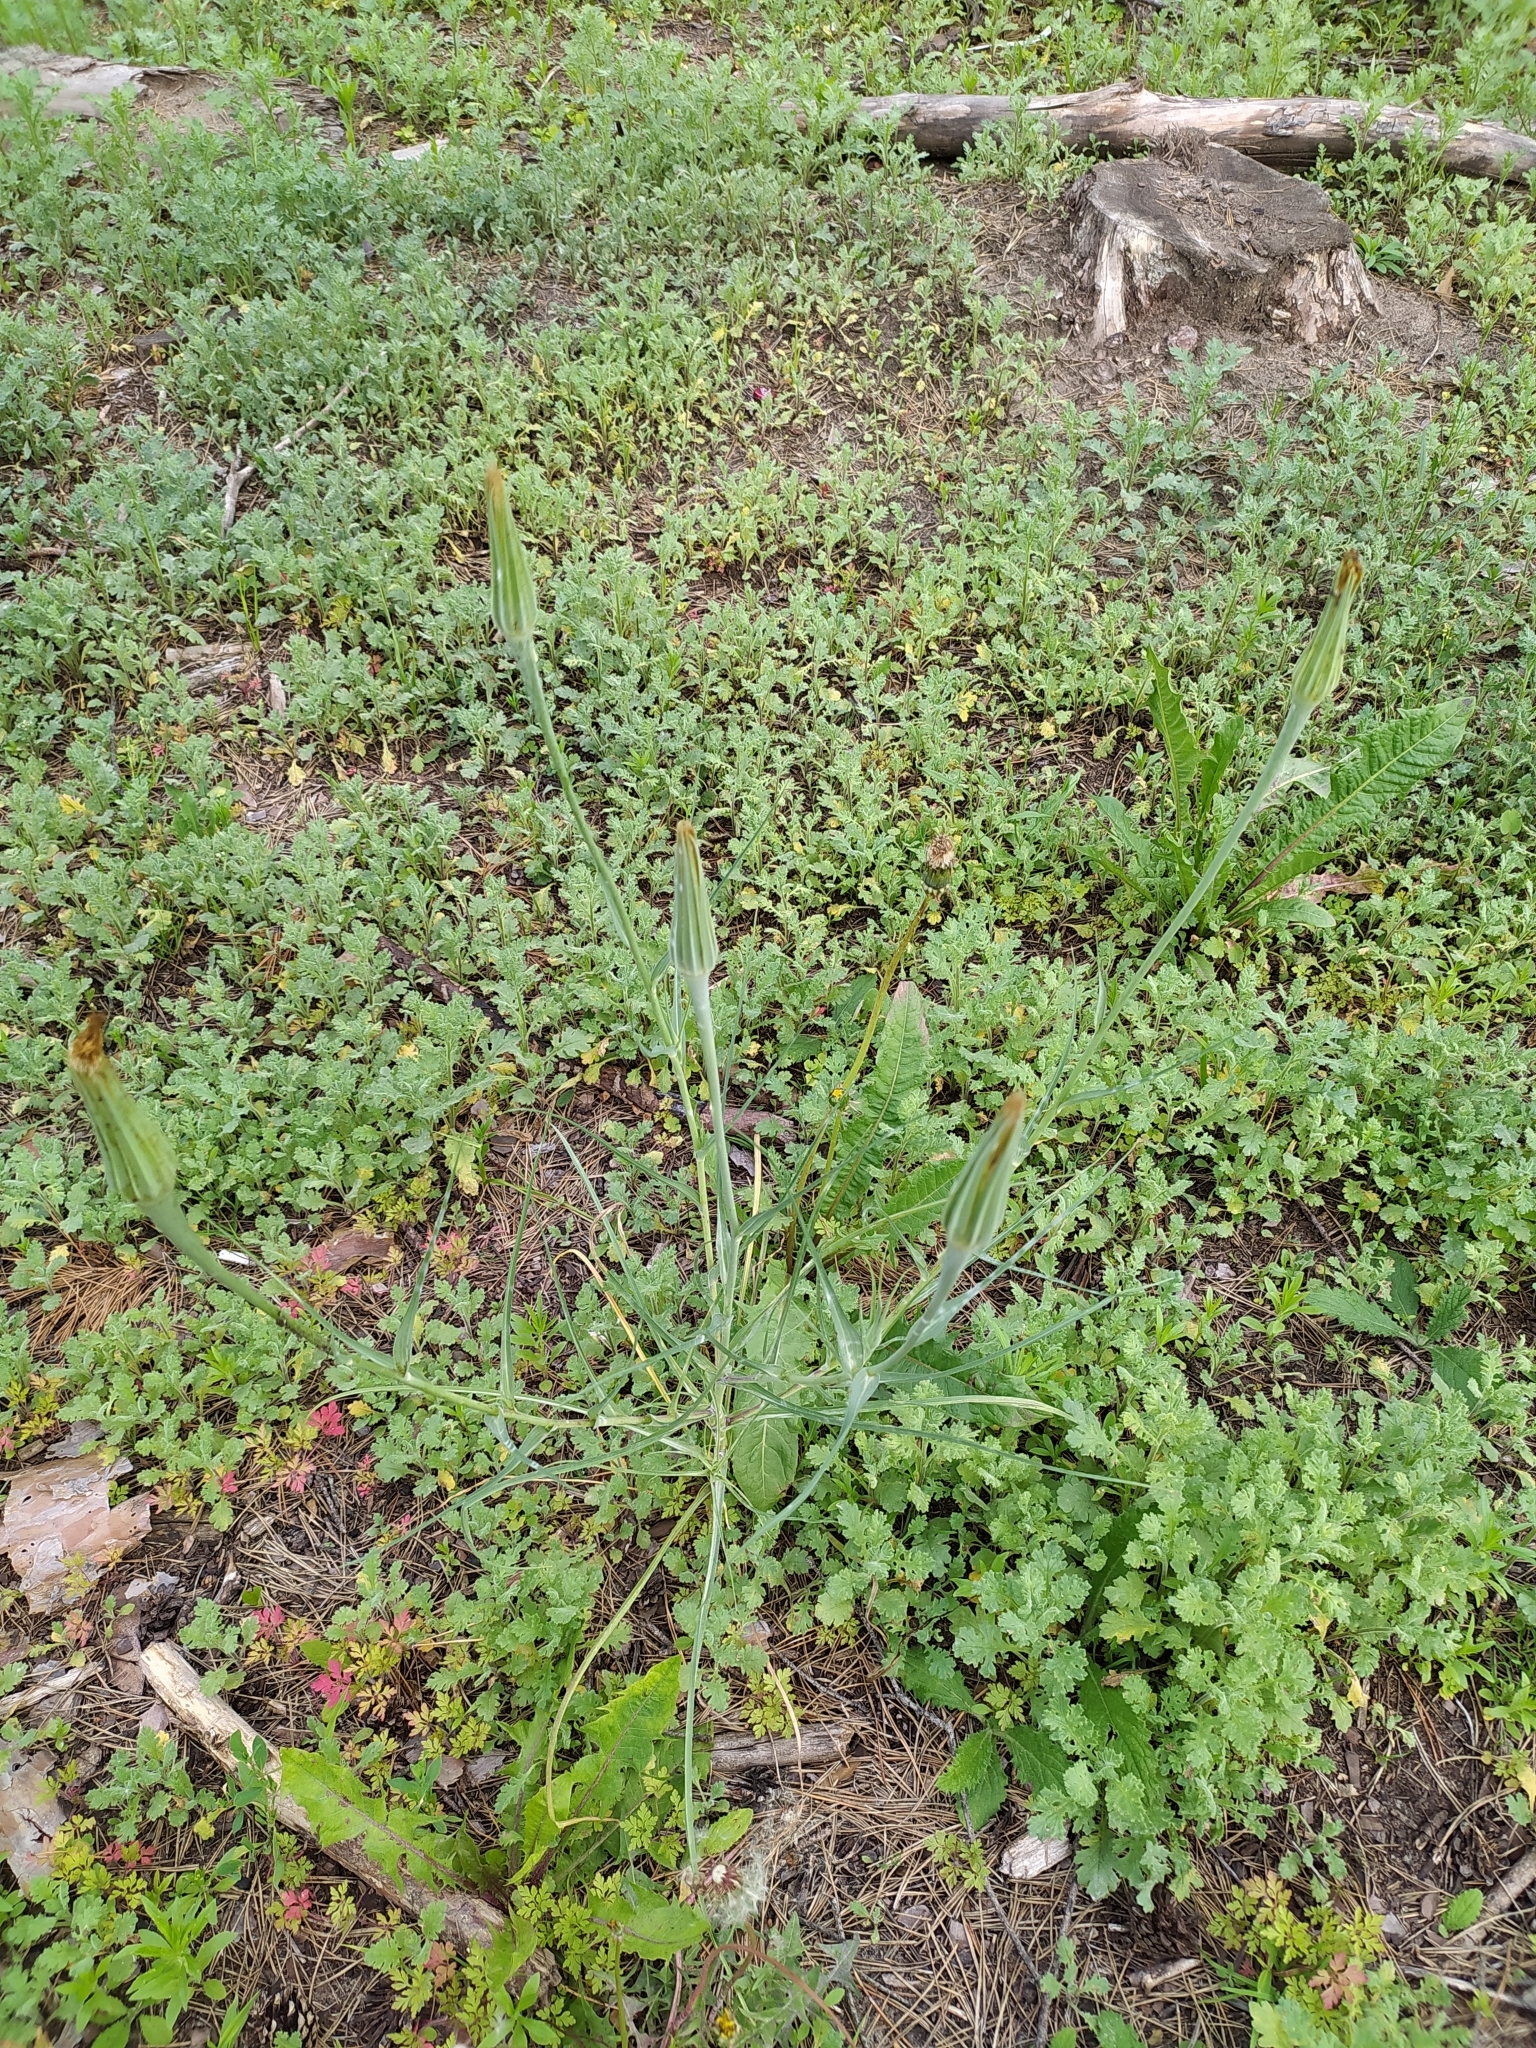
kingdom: Plantae
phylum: Tracheophyta
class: Magnoliopsida
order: Asterales
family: Asteraceae
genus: Tragopogon
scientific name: Tragopogon dubius
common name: Yellow salsify
